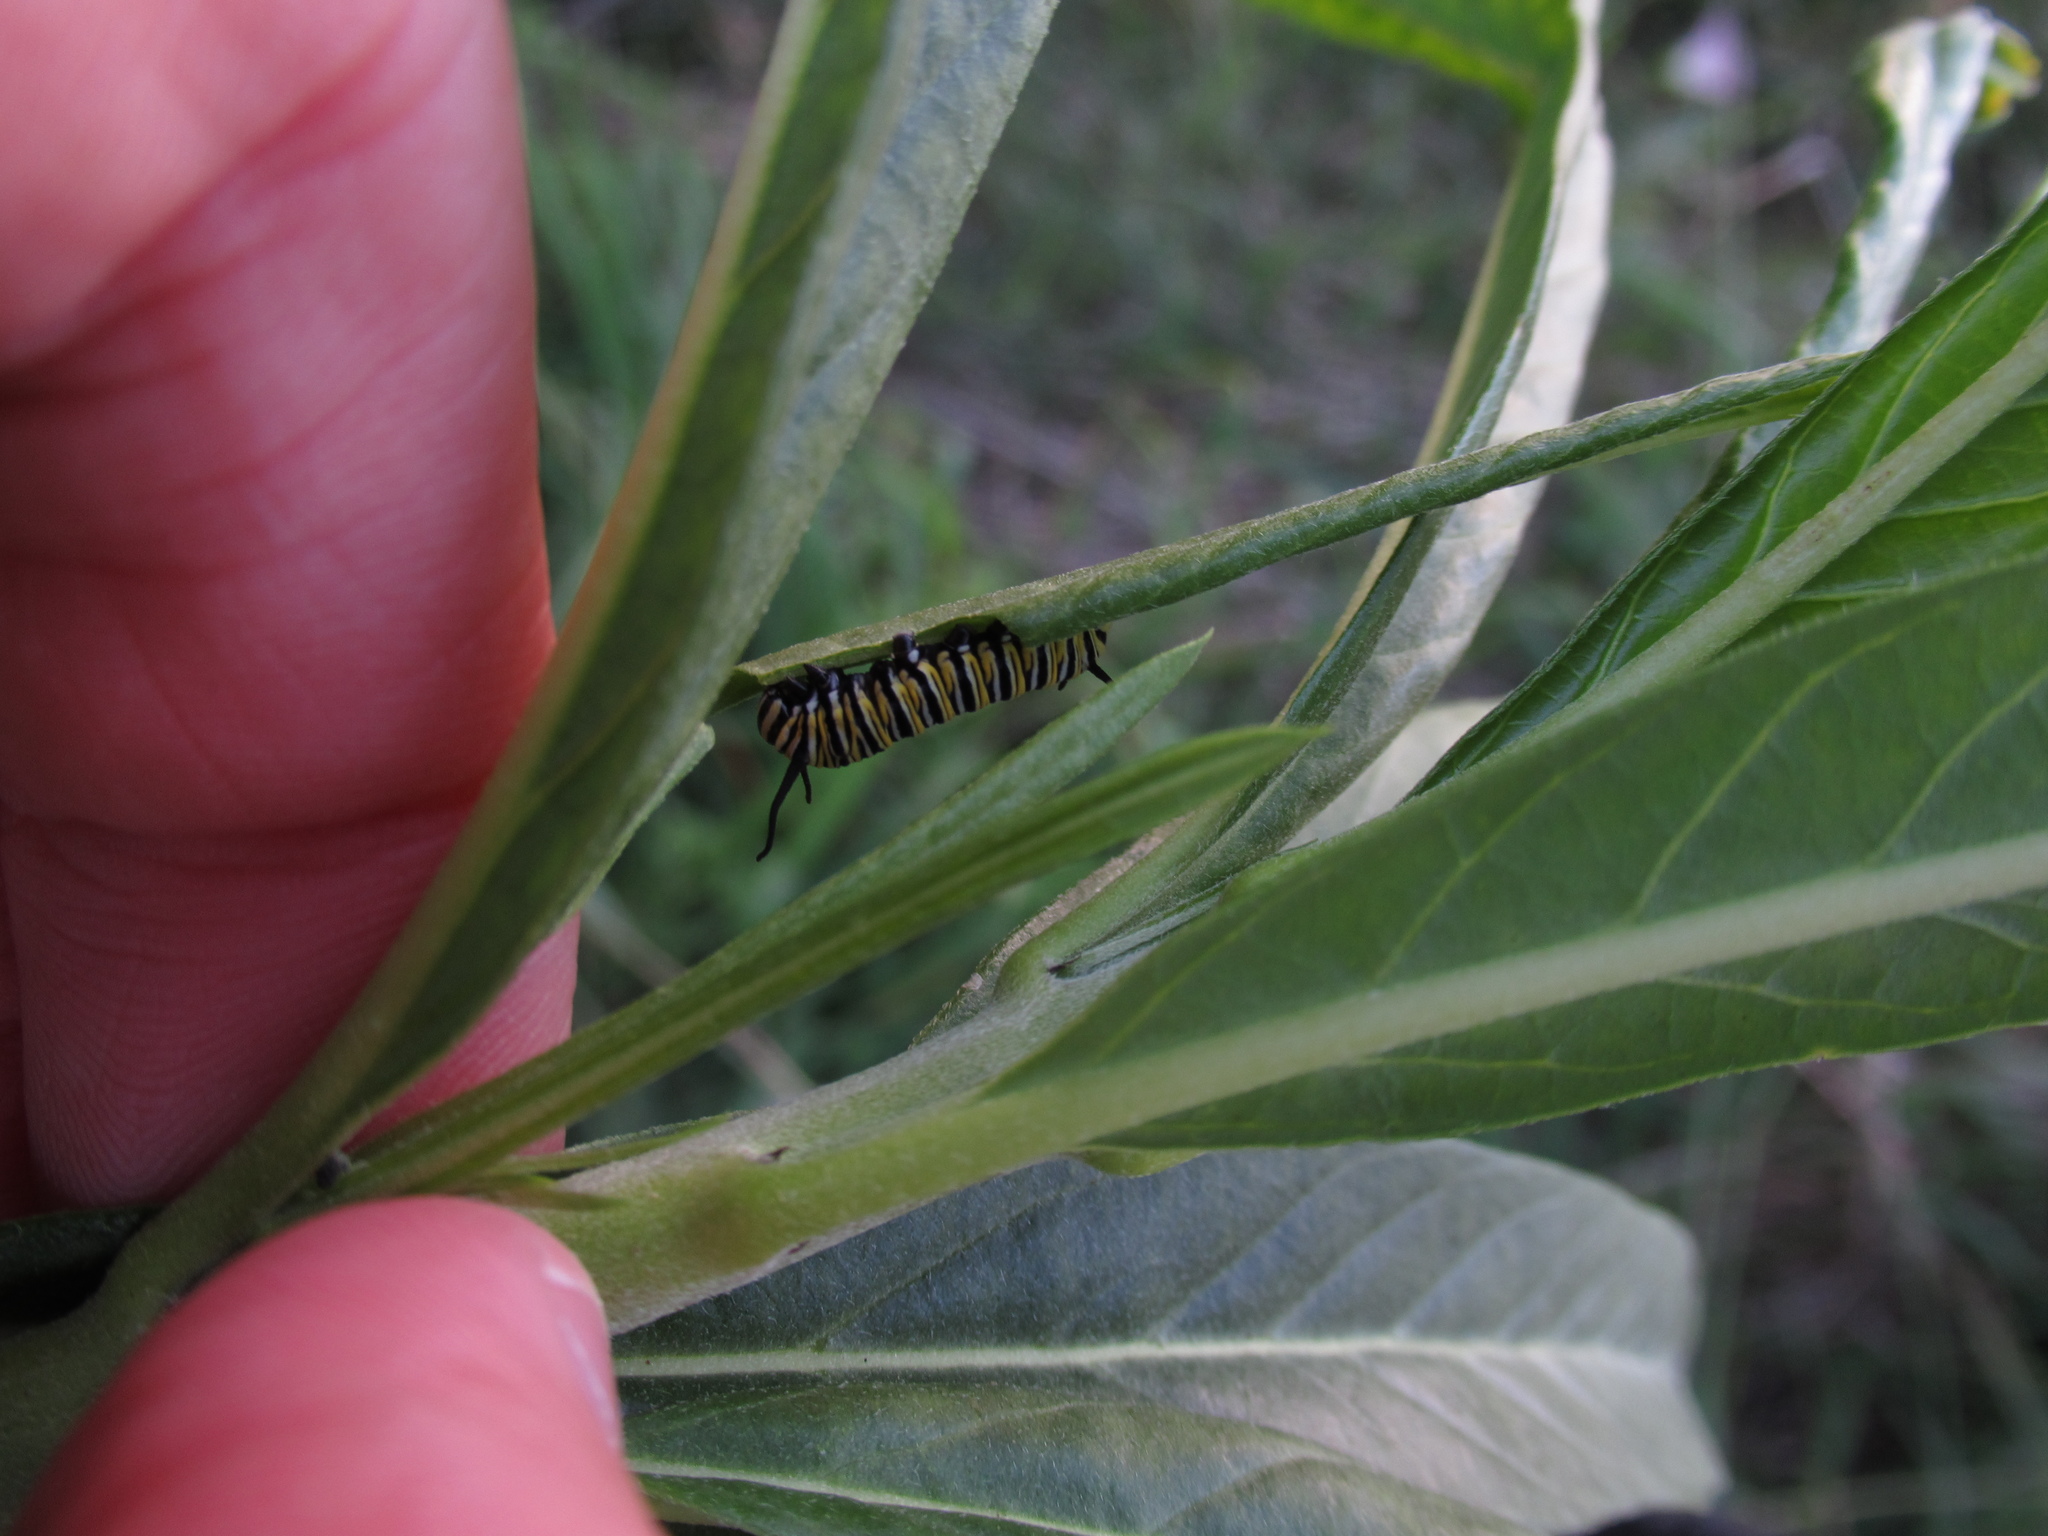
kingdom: Animalia
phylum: Arthropoda
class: Insecta
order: Lepidoptera
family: Nymphalidae
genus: Danaus
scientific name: Danaus plexippus
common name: Monarch
